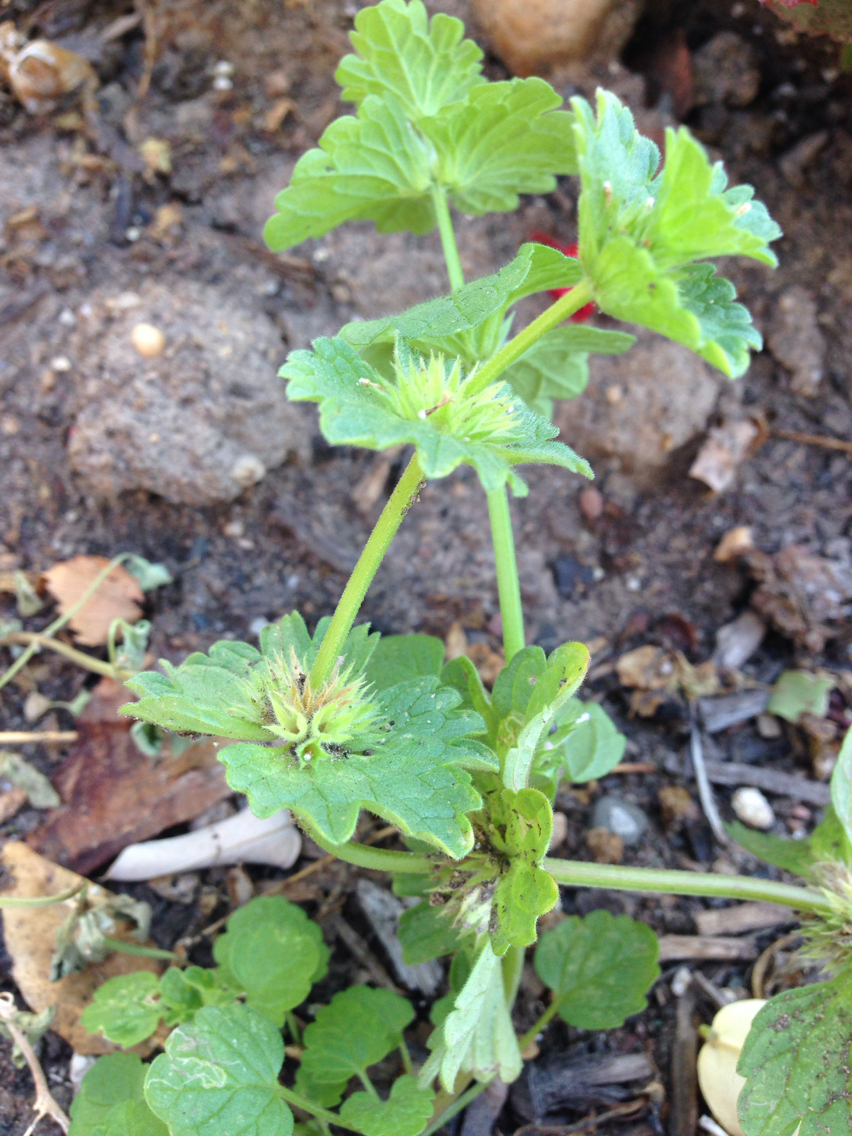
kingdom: Plantae
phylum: Tracheophyta
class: Magnoliopsida
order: Lamiales
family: Lamiaceae
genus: Lamium
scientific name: Lamium amplexicaule
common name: Henbit dead-nettle
